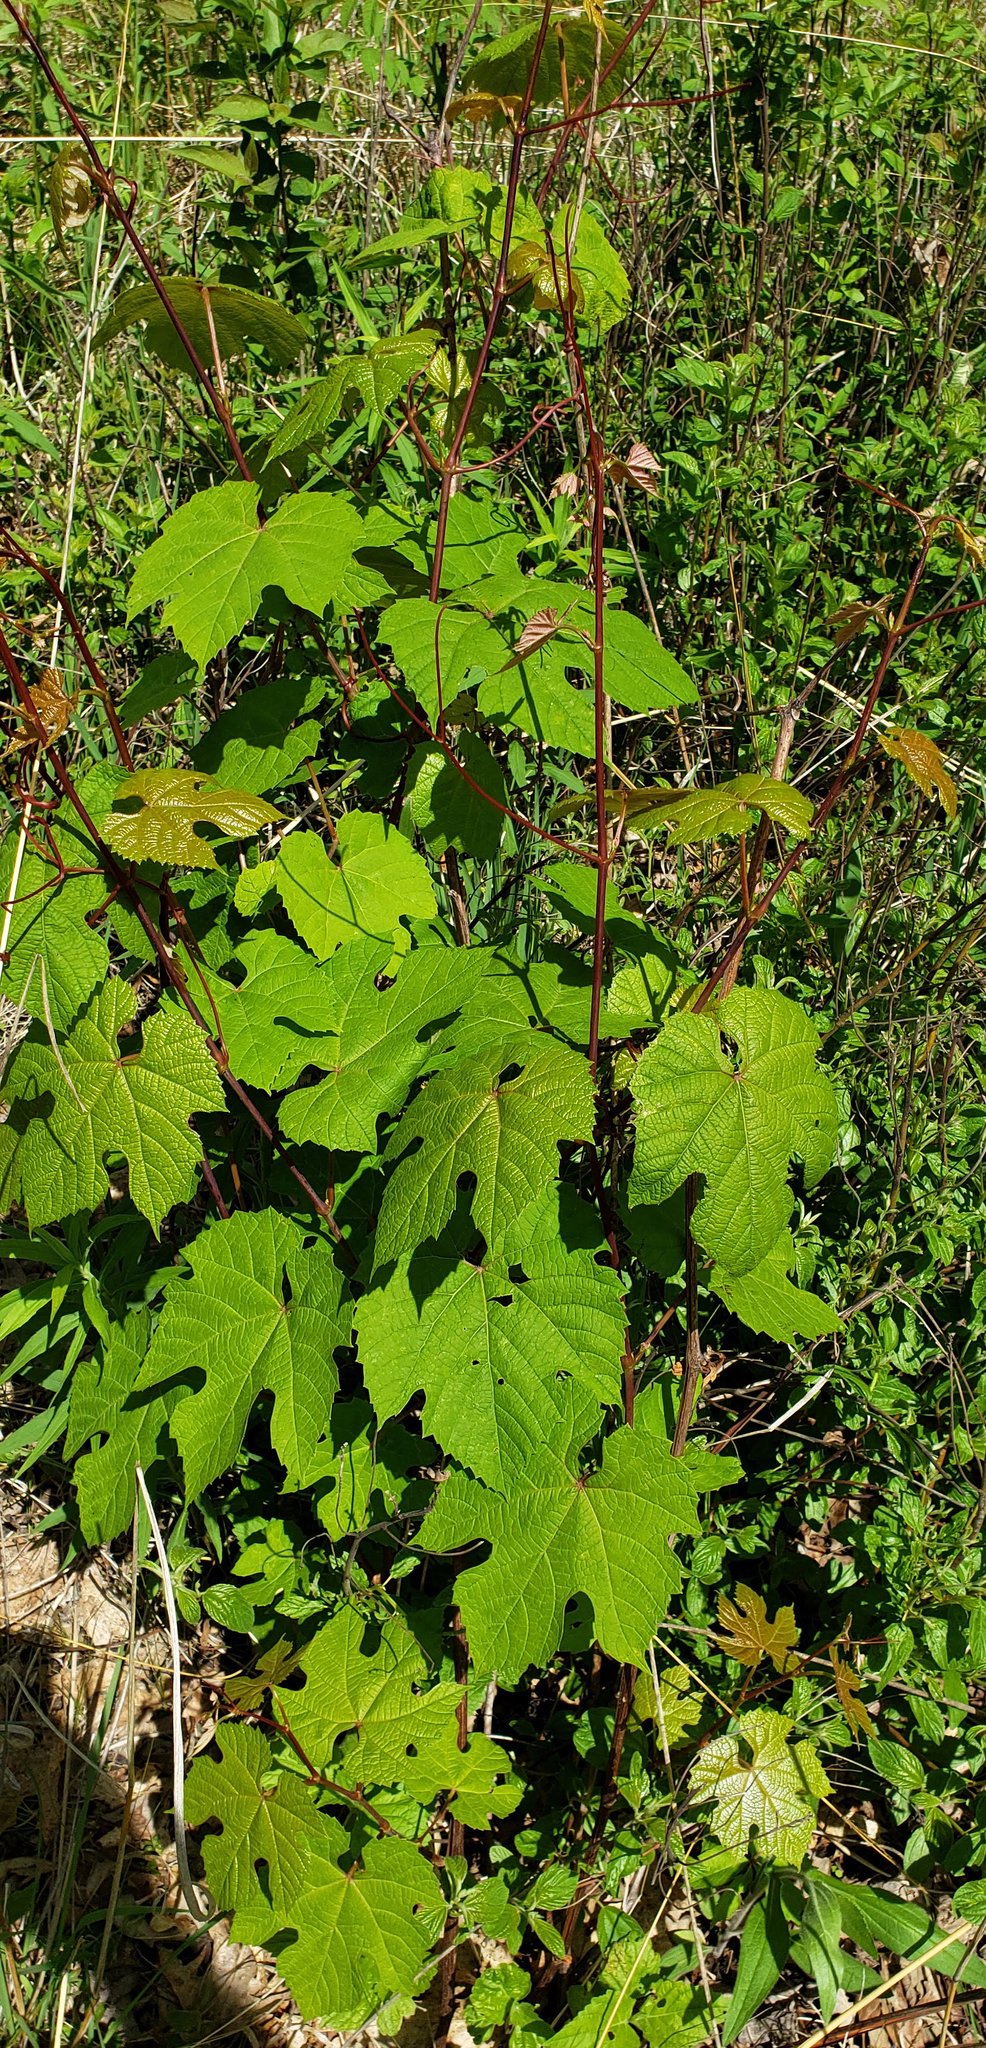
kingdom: Plantae
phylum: Tracheophyta
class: Magnoliopsida
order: Vitales
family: Vitaceae
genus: Vitis
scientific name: Vitis aestivalis
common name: Pigeon grape
